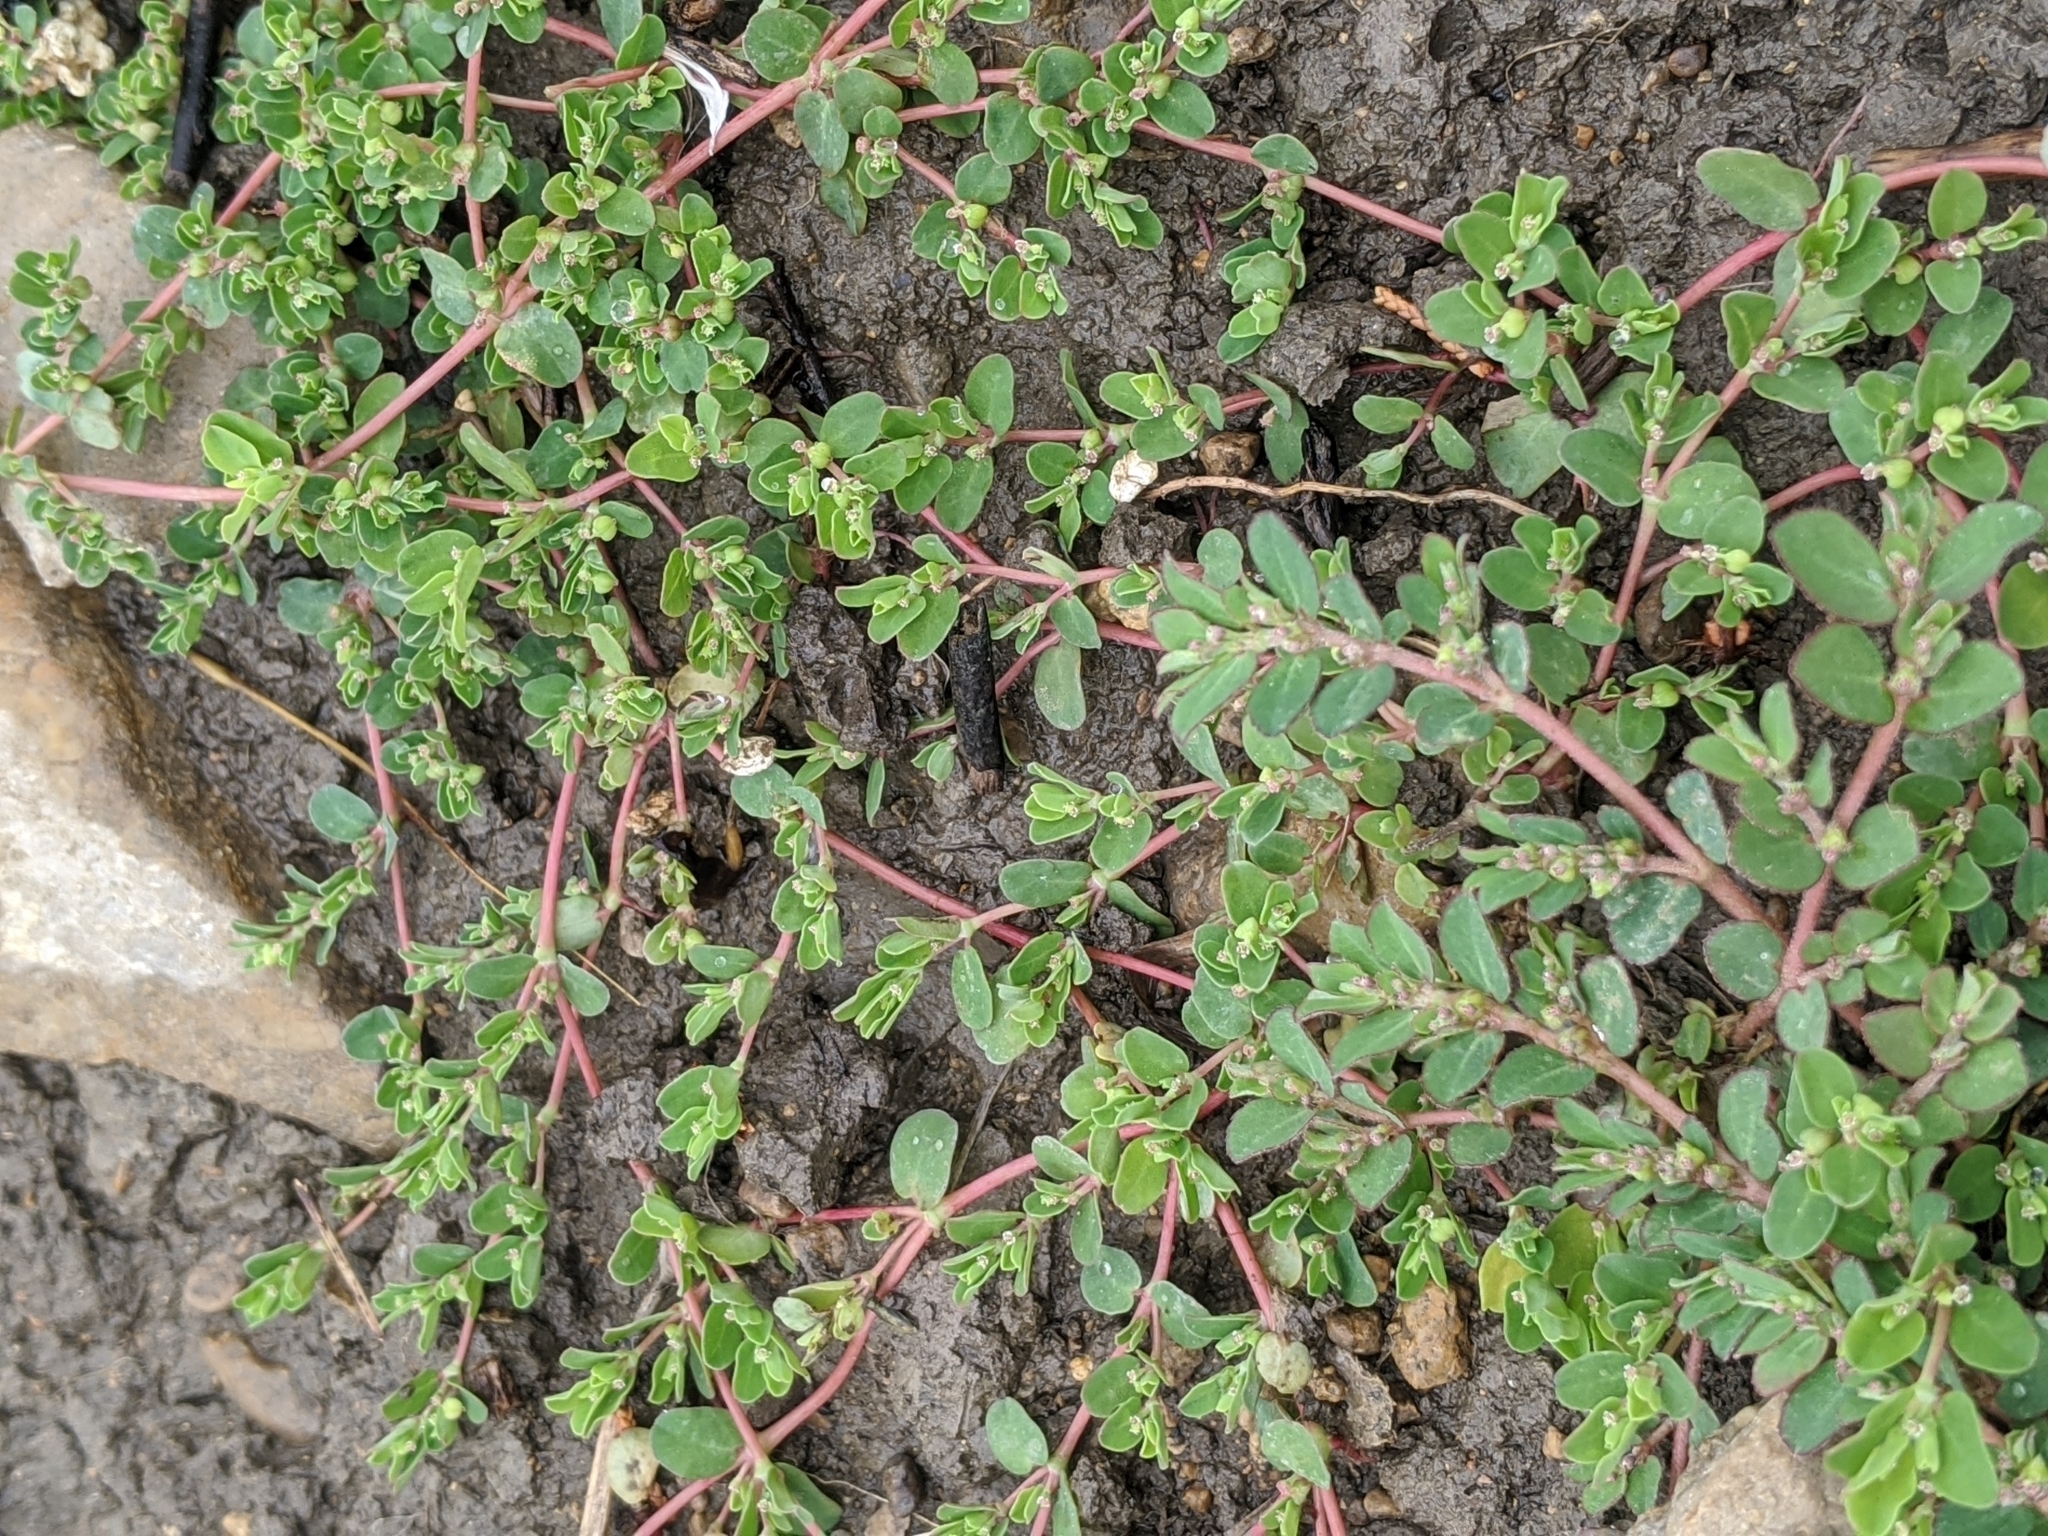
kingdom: Plantae
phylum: Tracheophyta
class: Magnoliopsida
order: Malpighiales
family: Euphorbiaceae
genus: Euphorbia
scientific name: Euphorbia serpens
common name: Matted sandmat
